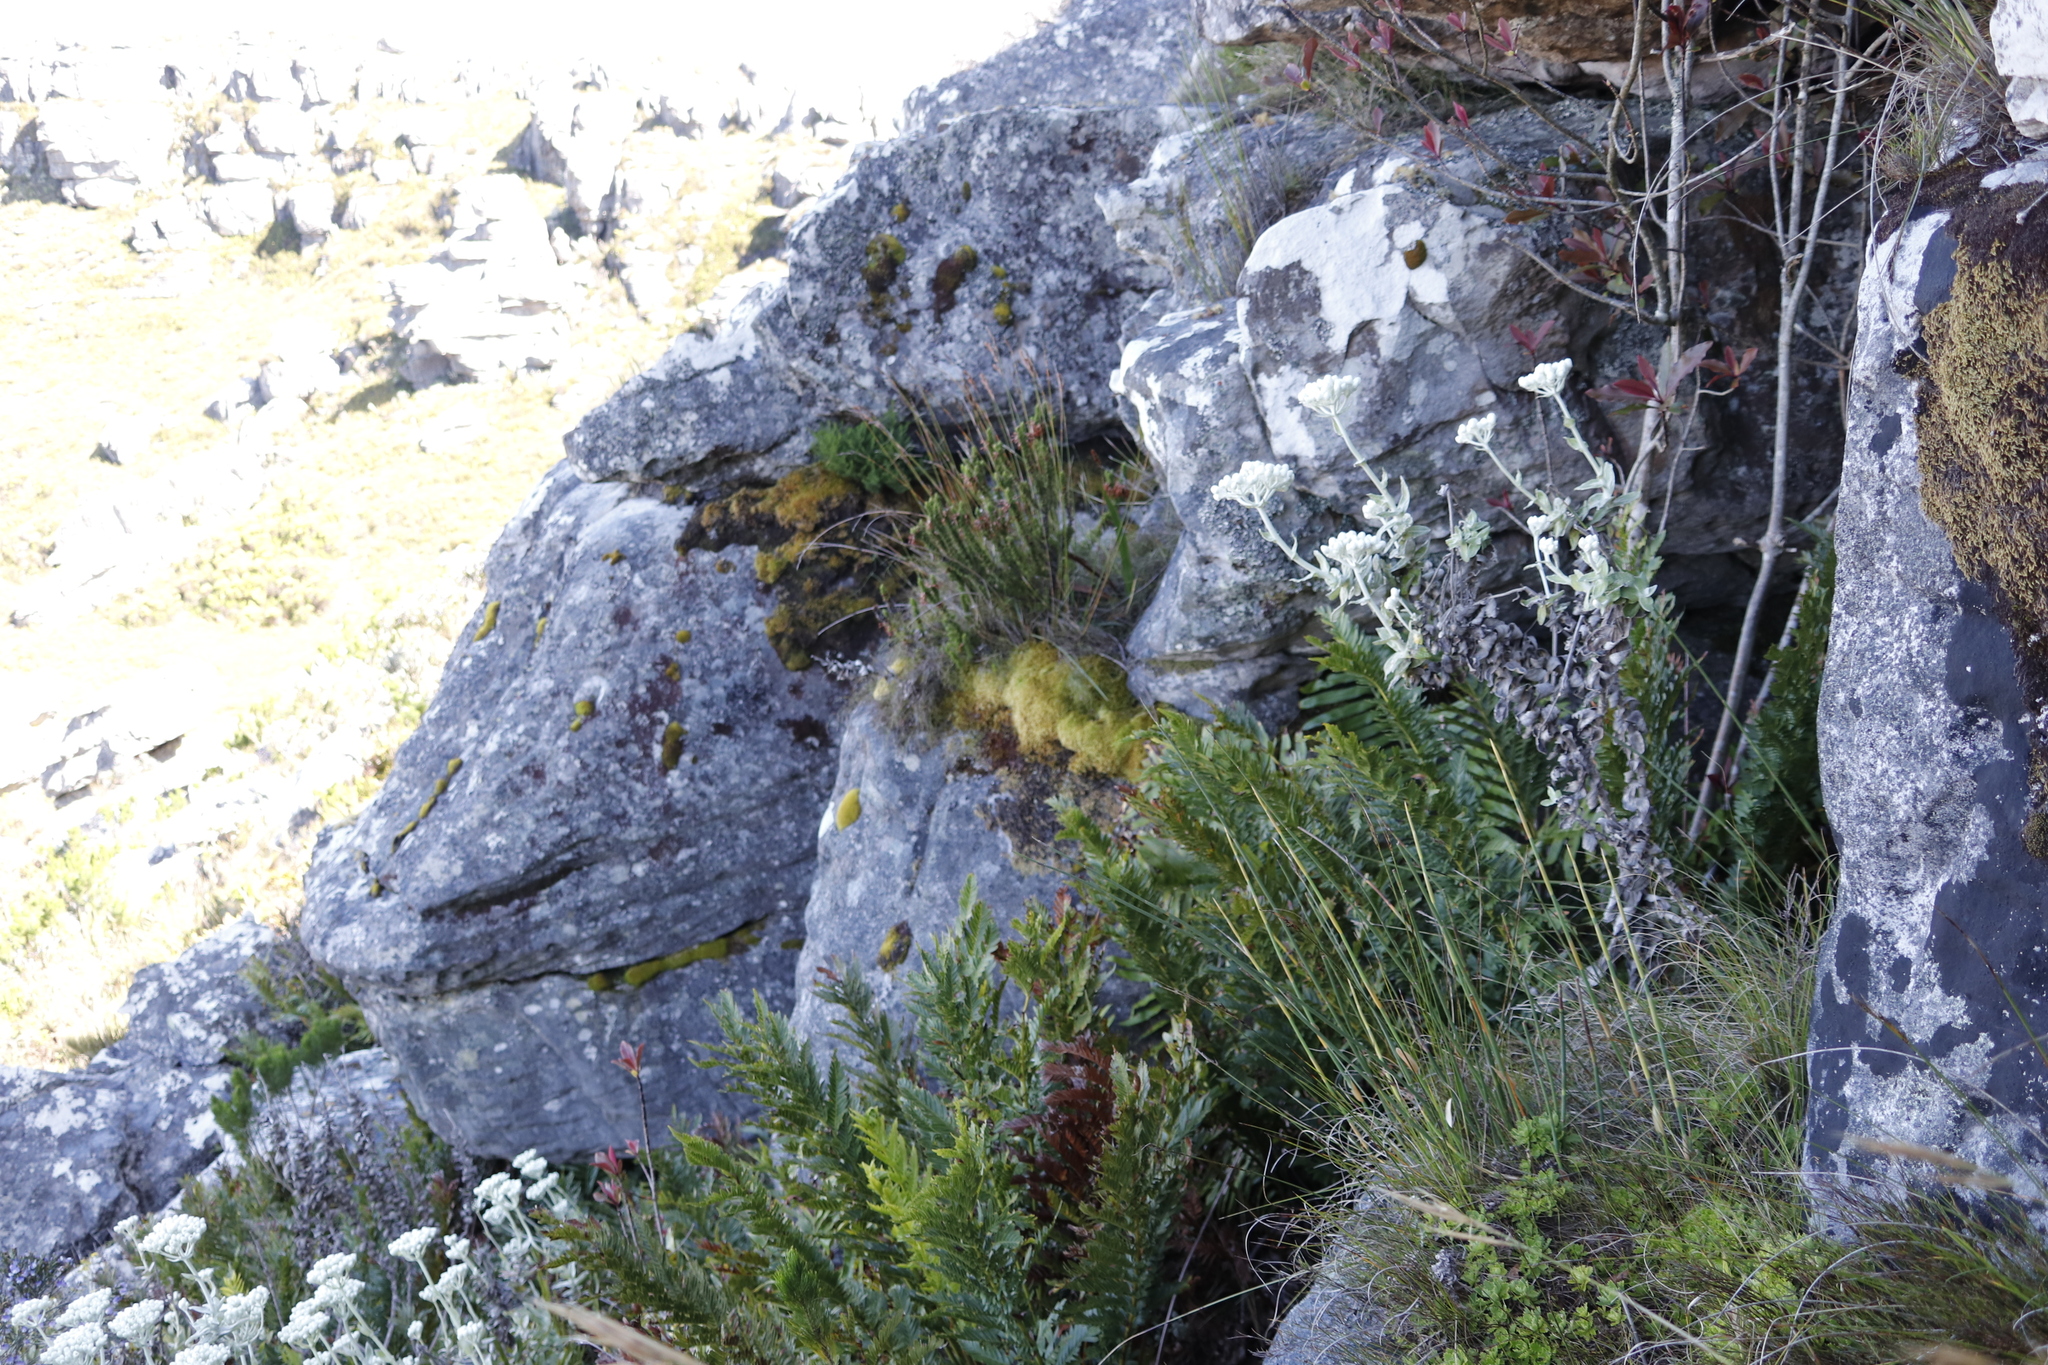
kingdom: Plantae
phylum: Tracheophyta
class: Polypodiopsida
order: Osmundales
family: Osmundaceae
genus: Todea
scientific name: Todea barbara
